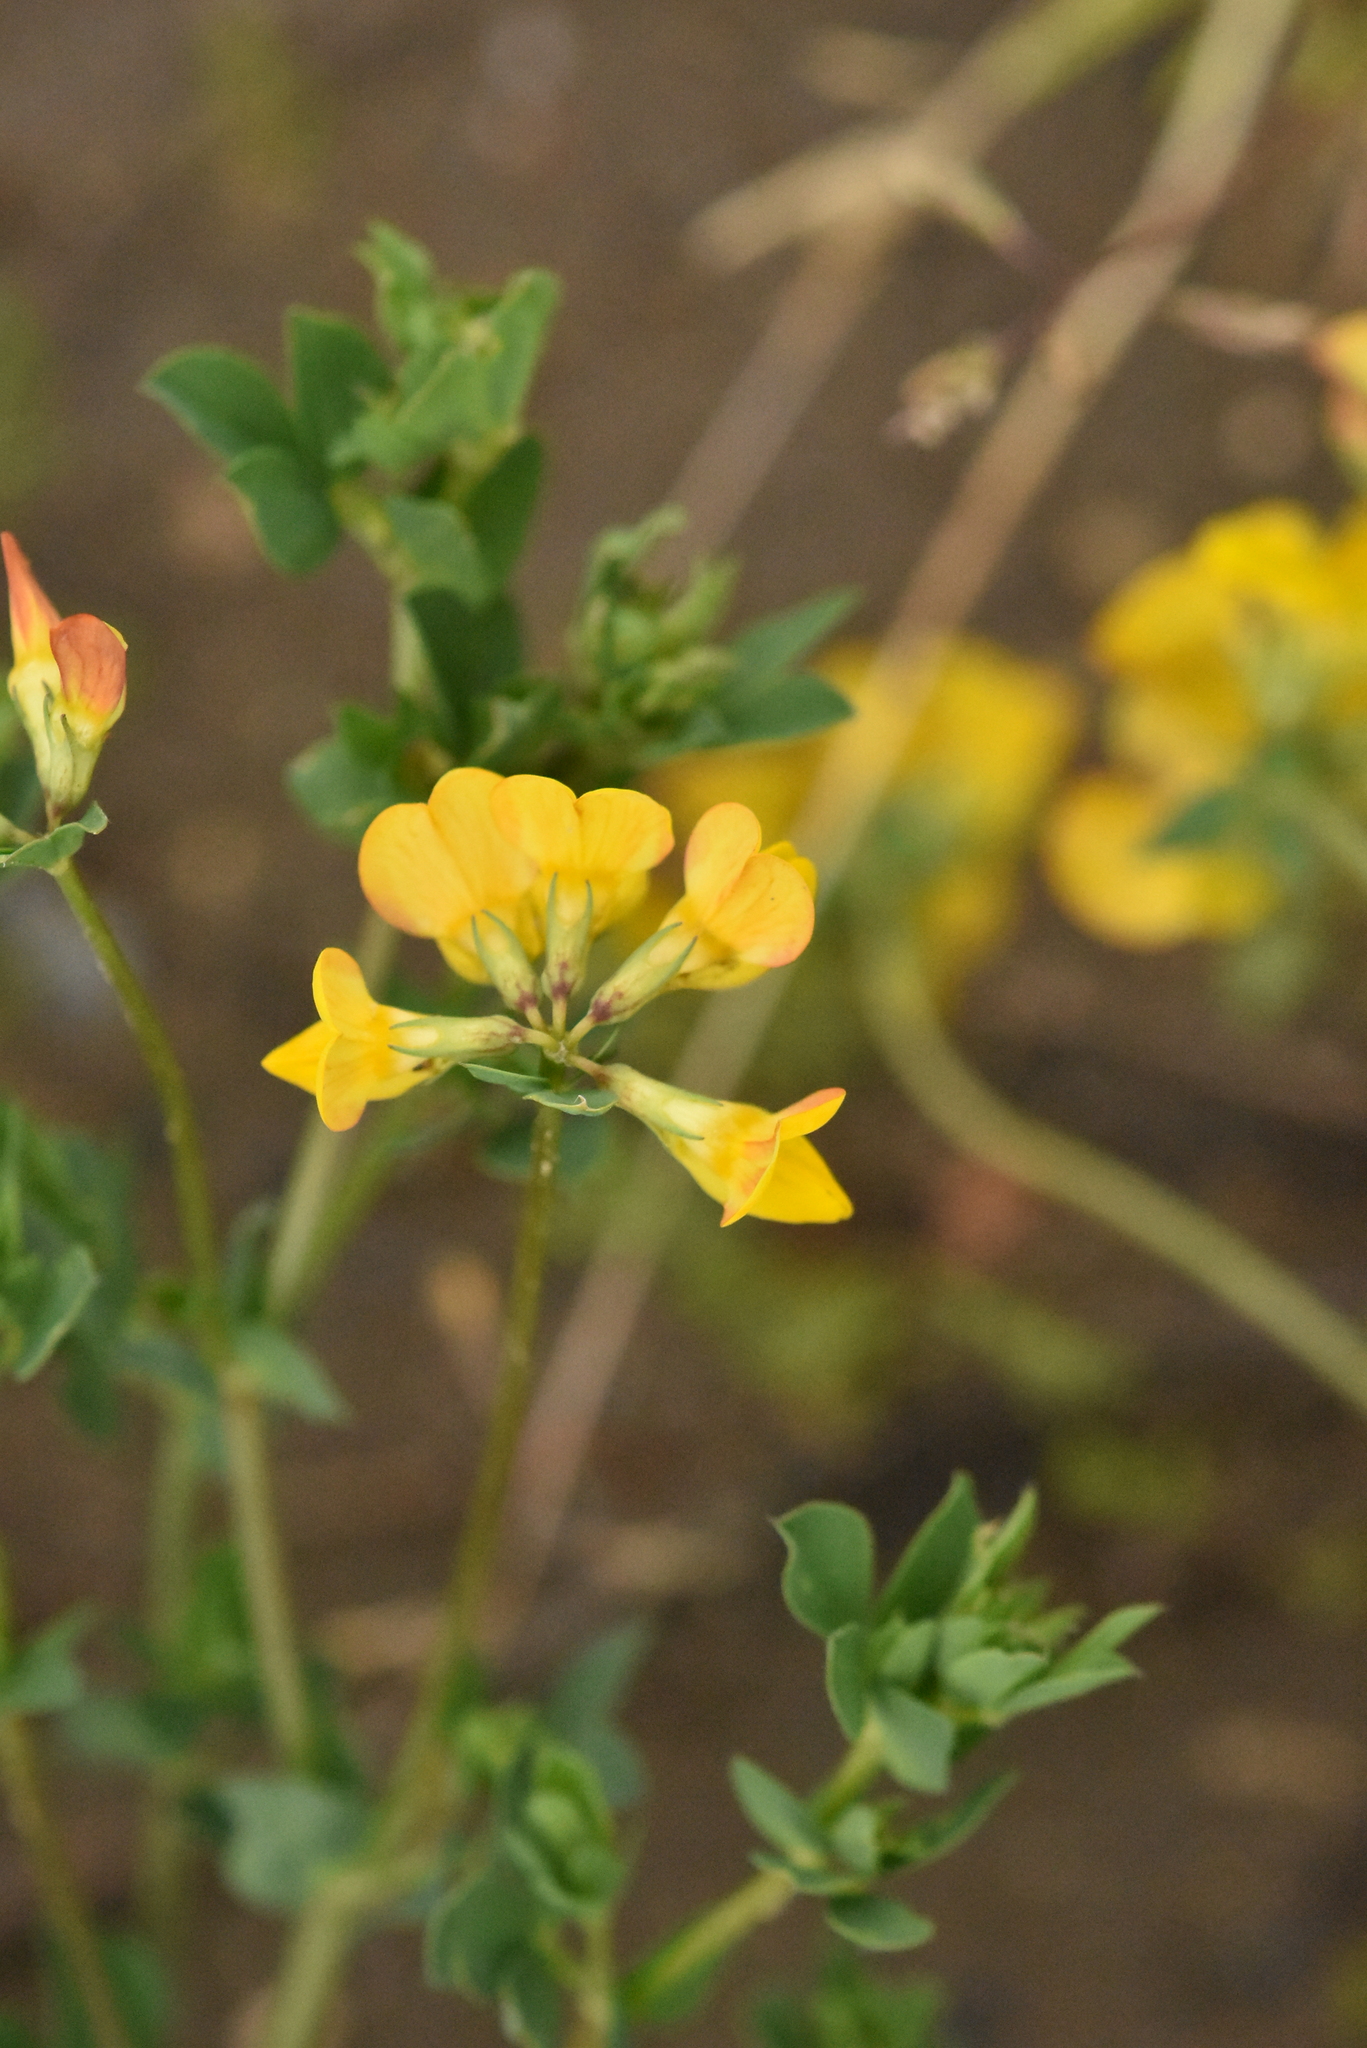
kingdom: Plantae
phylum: Tracheophyta
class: Magnoliopsida
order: Fabales
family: Fabaceae
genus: Lotus
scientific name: Lotus corniculatus
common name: Common bird's-foot-trefoil
